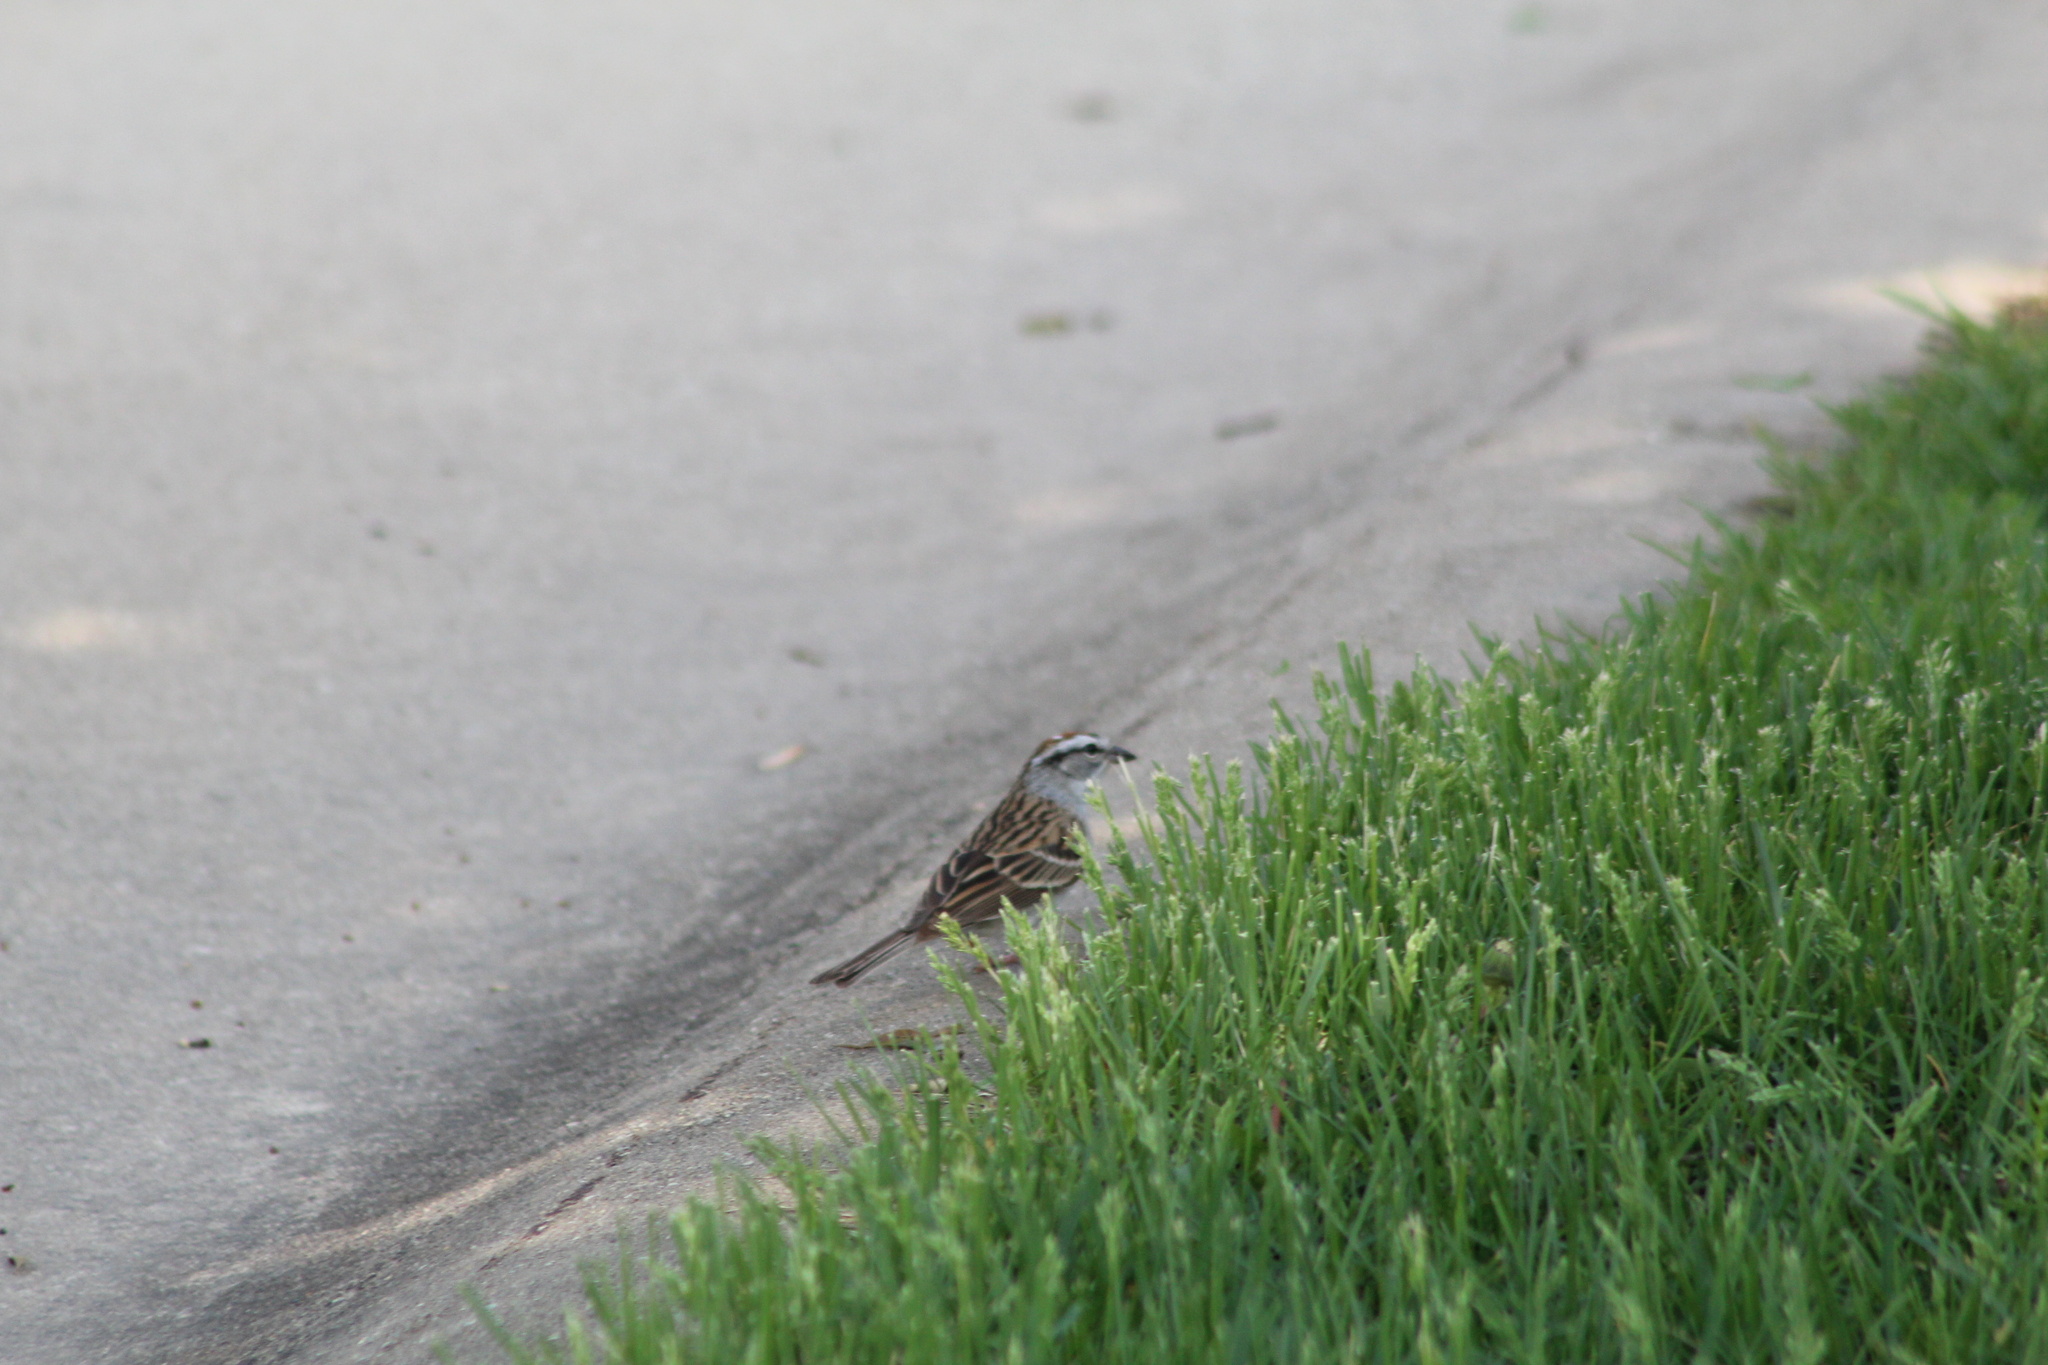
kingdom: Animalia
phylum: Chordata
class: Aves
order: Passeriformes
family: Passerellidae
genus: Spizella
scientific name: Spizella passerina
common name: Chipping sparrow
